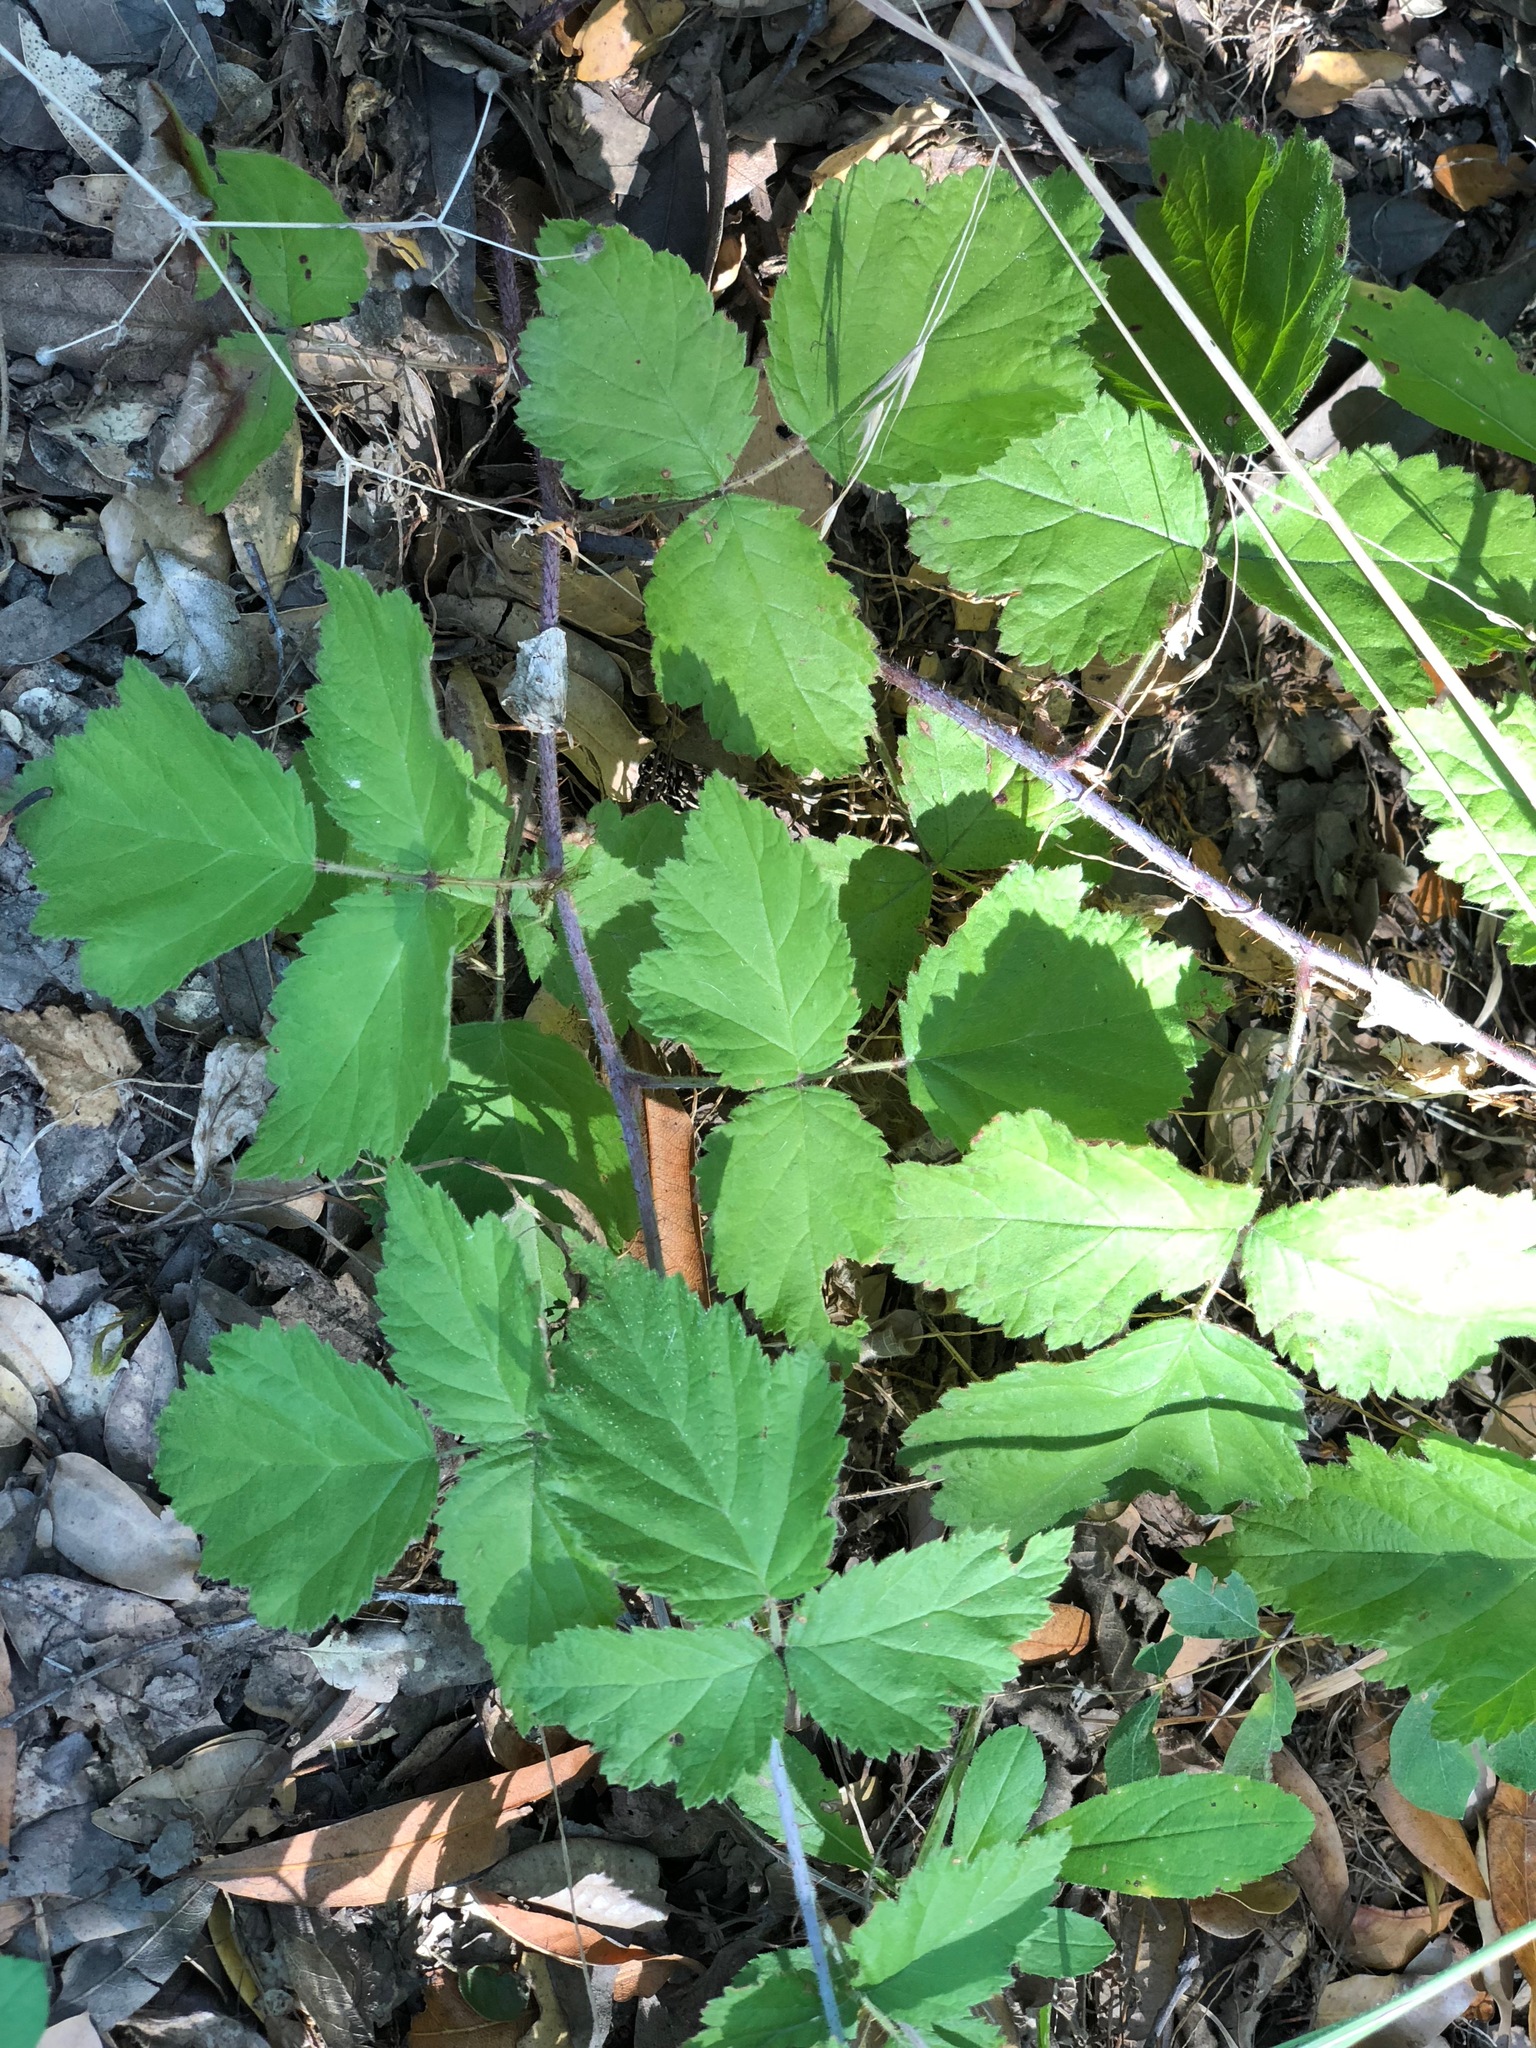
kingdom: Plantae
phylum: Tracheophyta
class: Magnoliopsida
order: Rosales
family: Rosaceae
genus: Rubus
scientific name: Rubus ursinus
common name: Pacific blackberry
